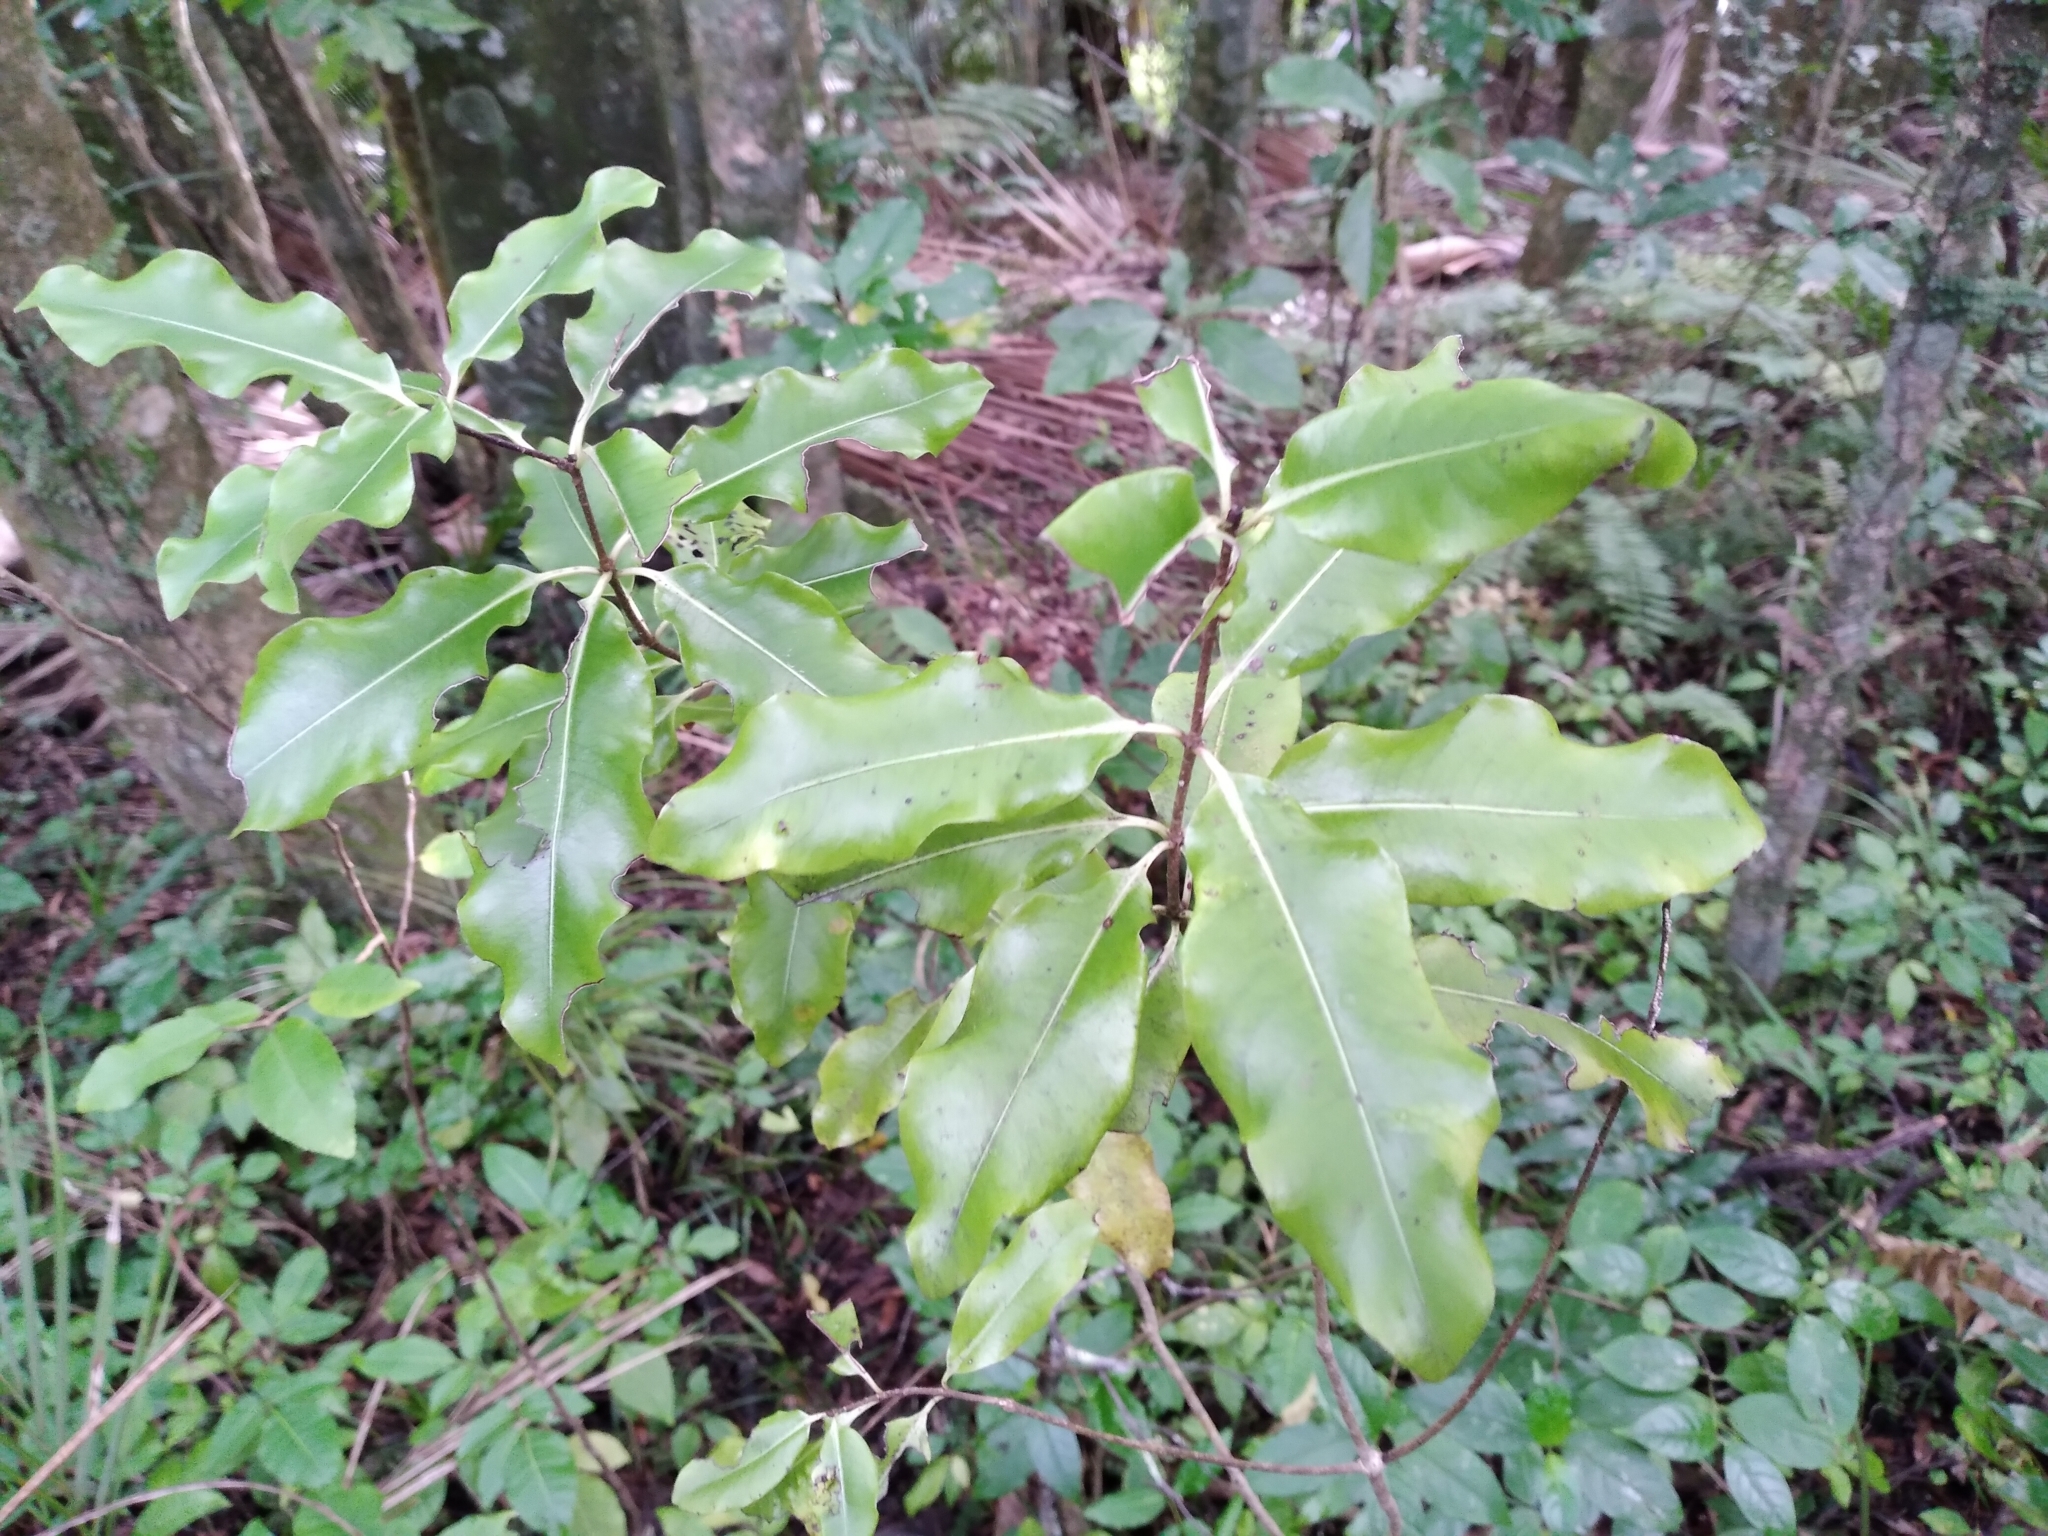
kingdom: Plantae
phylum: Tracheophyta
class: Magnoliopsida
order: Apiales
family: Pittosporaceae
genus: Pittosporum
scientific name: Pittosporum eugenioides
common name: Lemonwood
